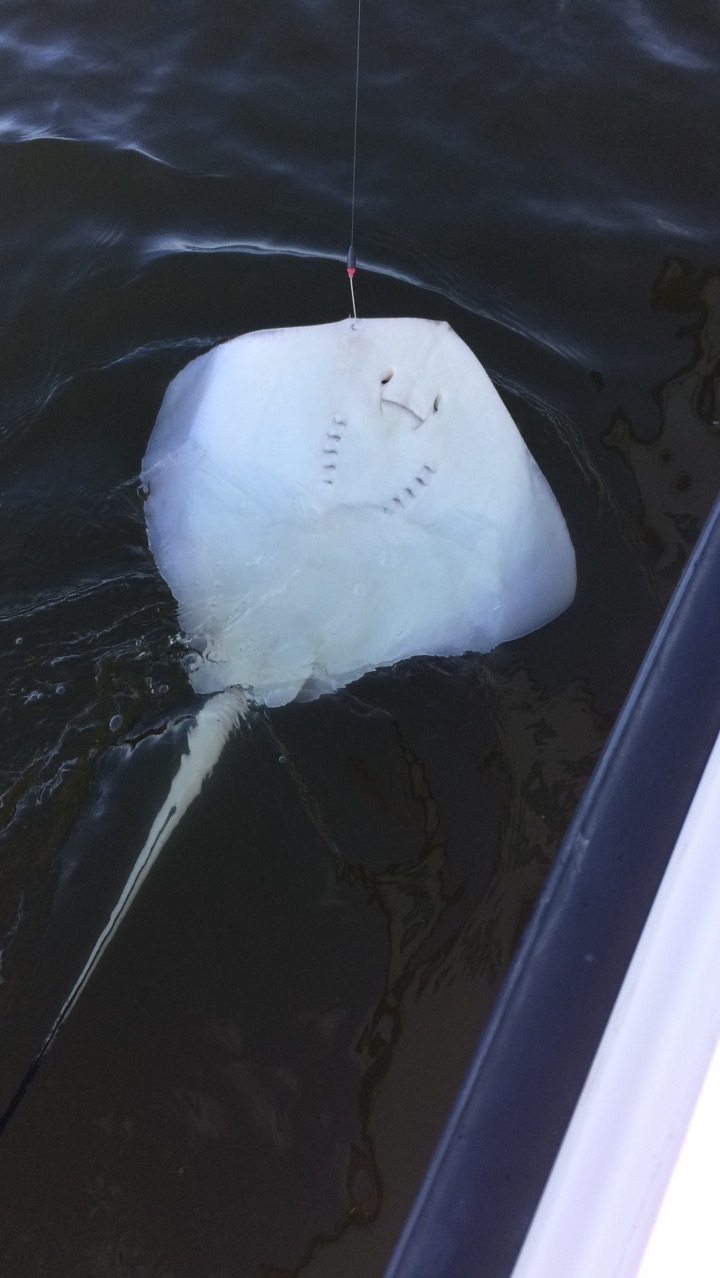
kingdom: Animalia
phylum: Chordata
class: Elasmobranchii
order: Myliobatiformes
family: Dasyatidae
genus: Hypanus
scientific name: Hypanus americanus
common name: Southern stingray
